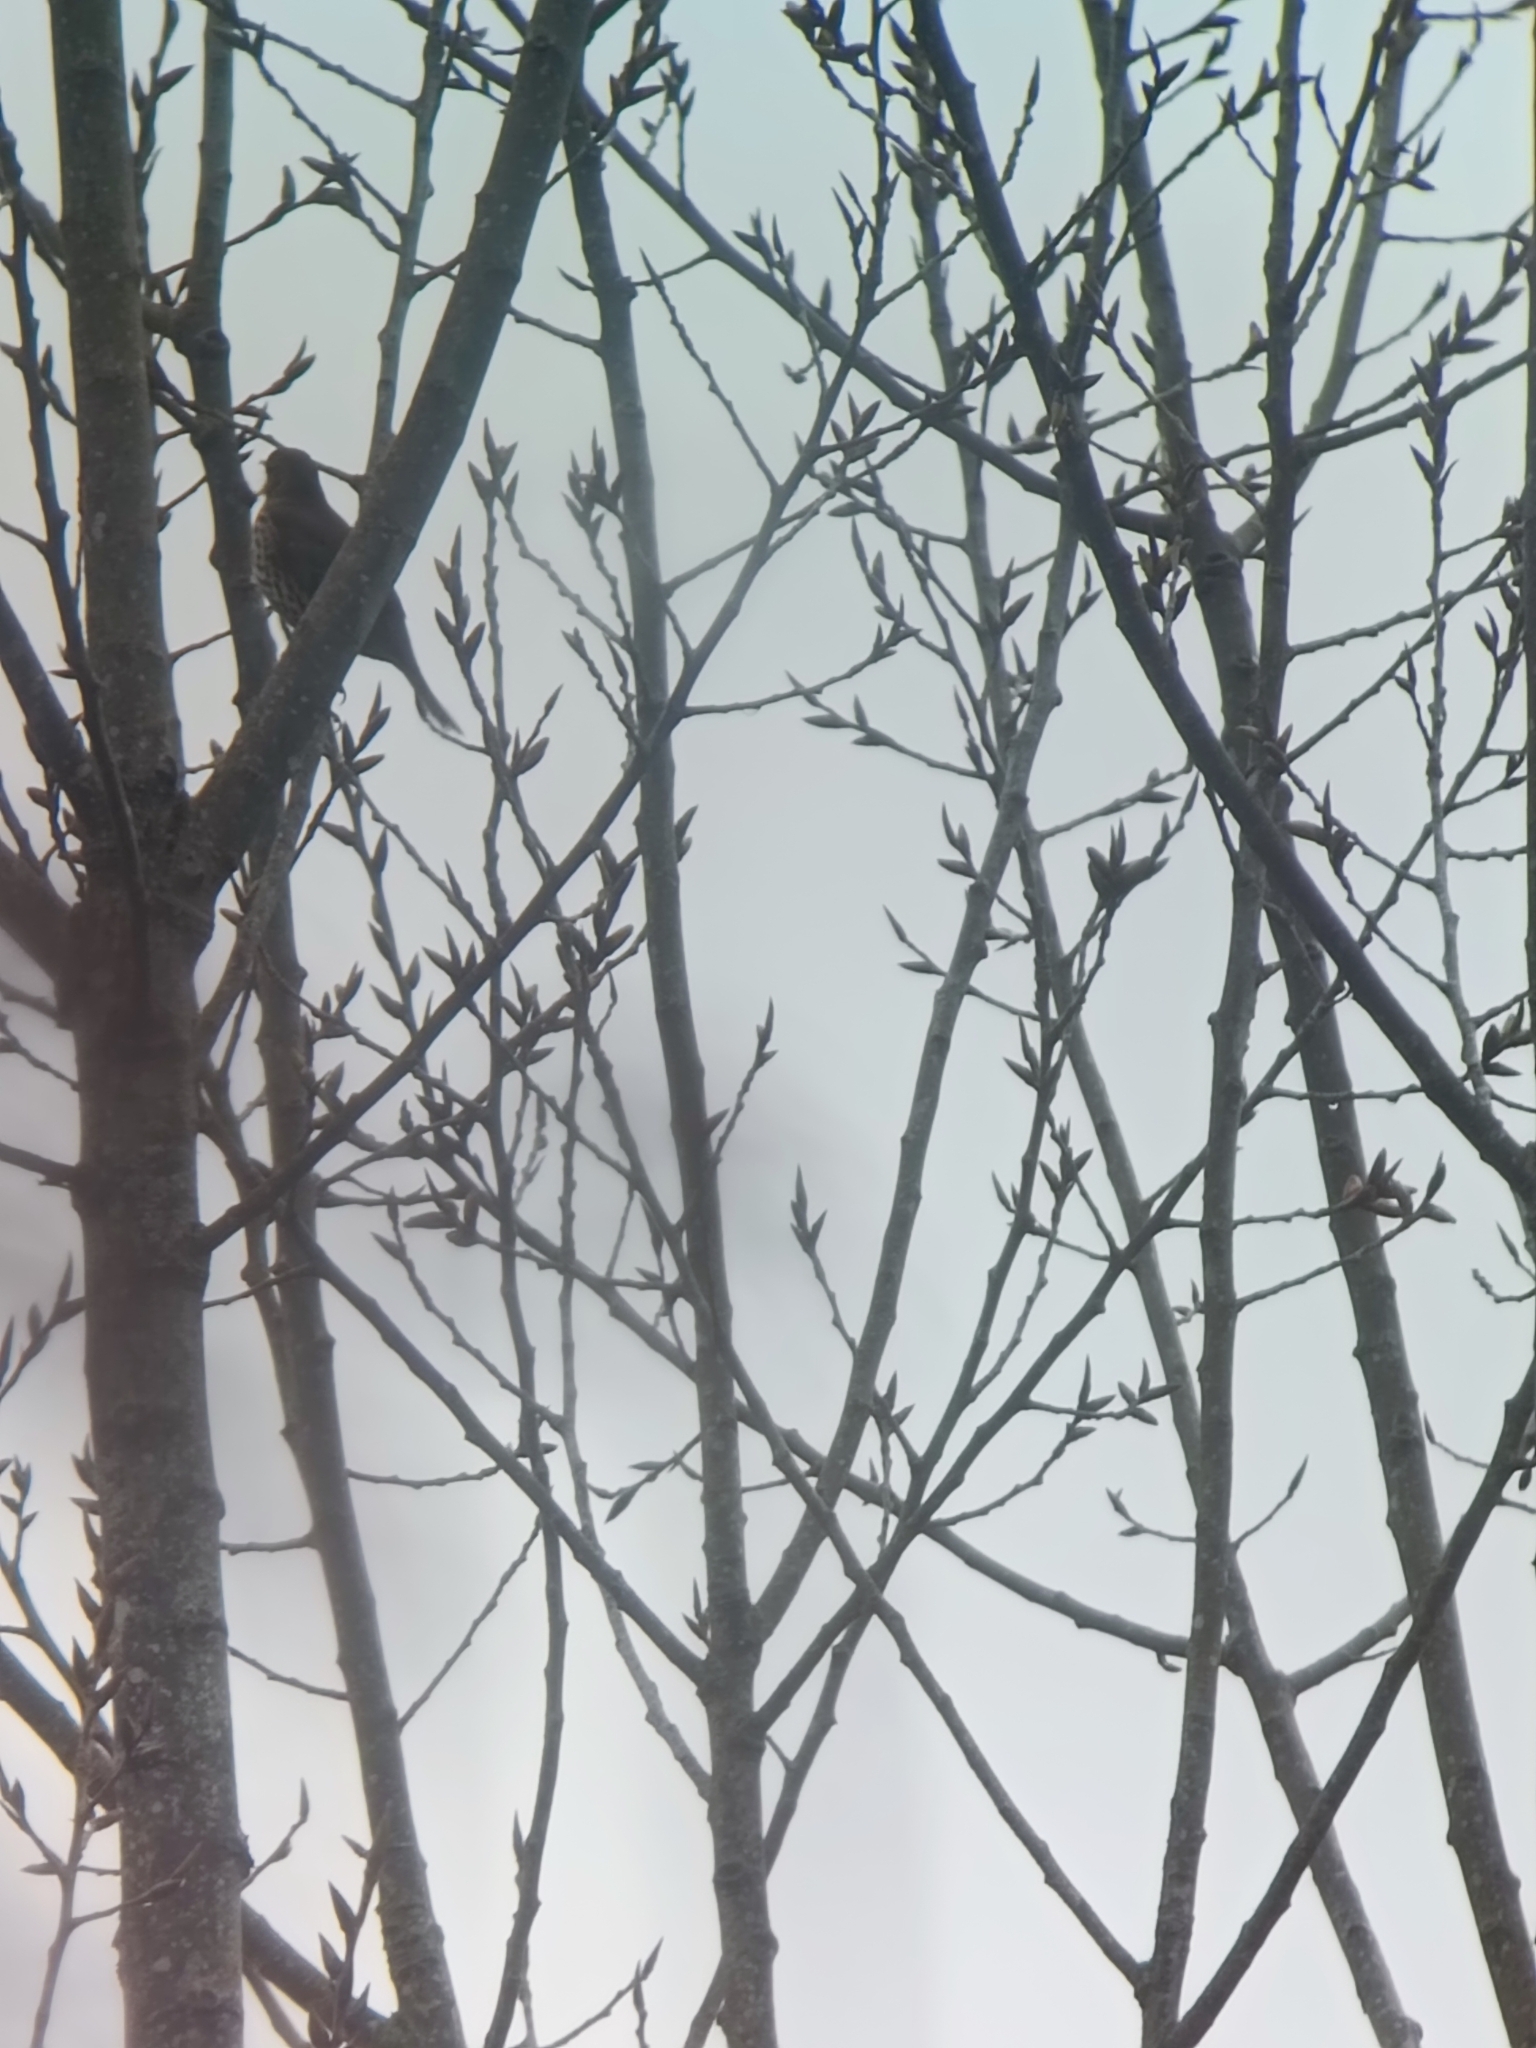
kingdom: Animalia
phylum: Chordata
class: Aves
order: Passeriformes
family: Turdidae
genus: Turdus
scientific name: Turdus philomelos
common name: Song thrush
